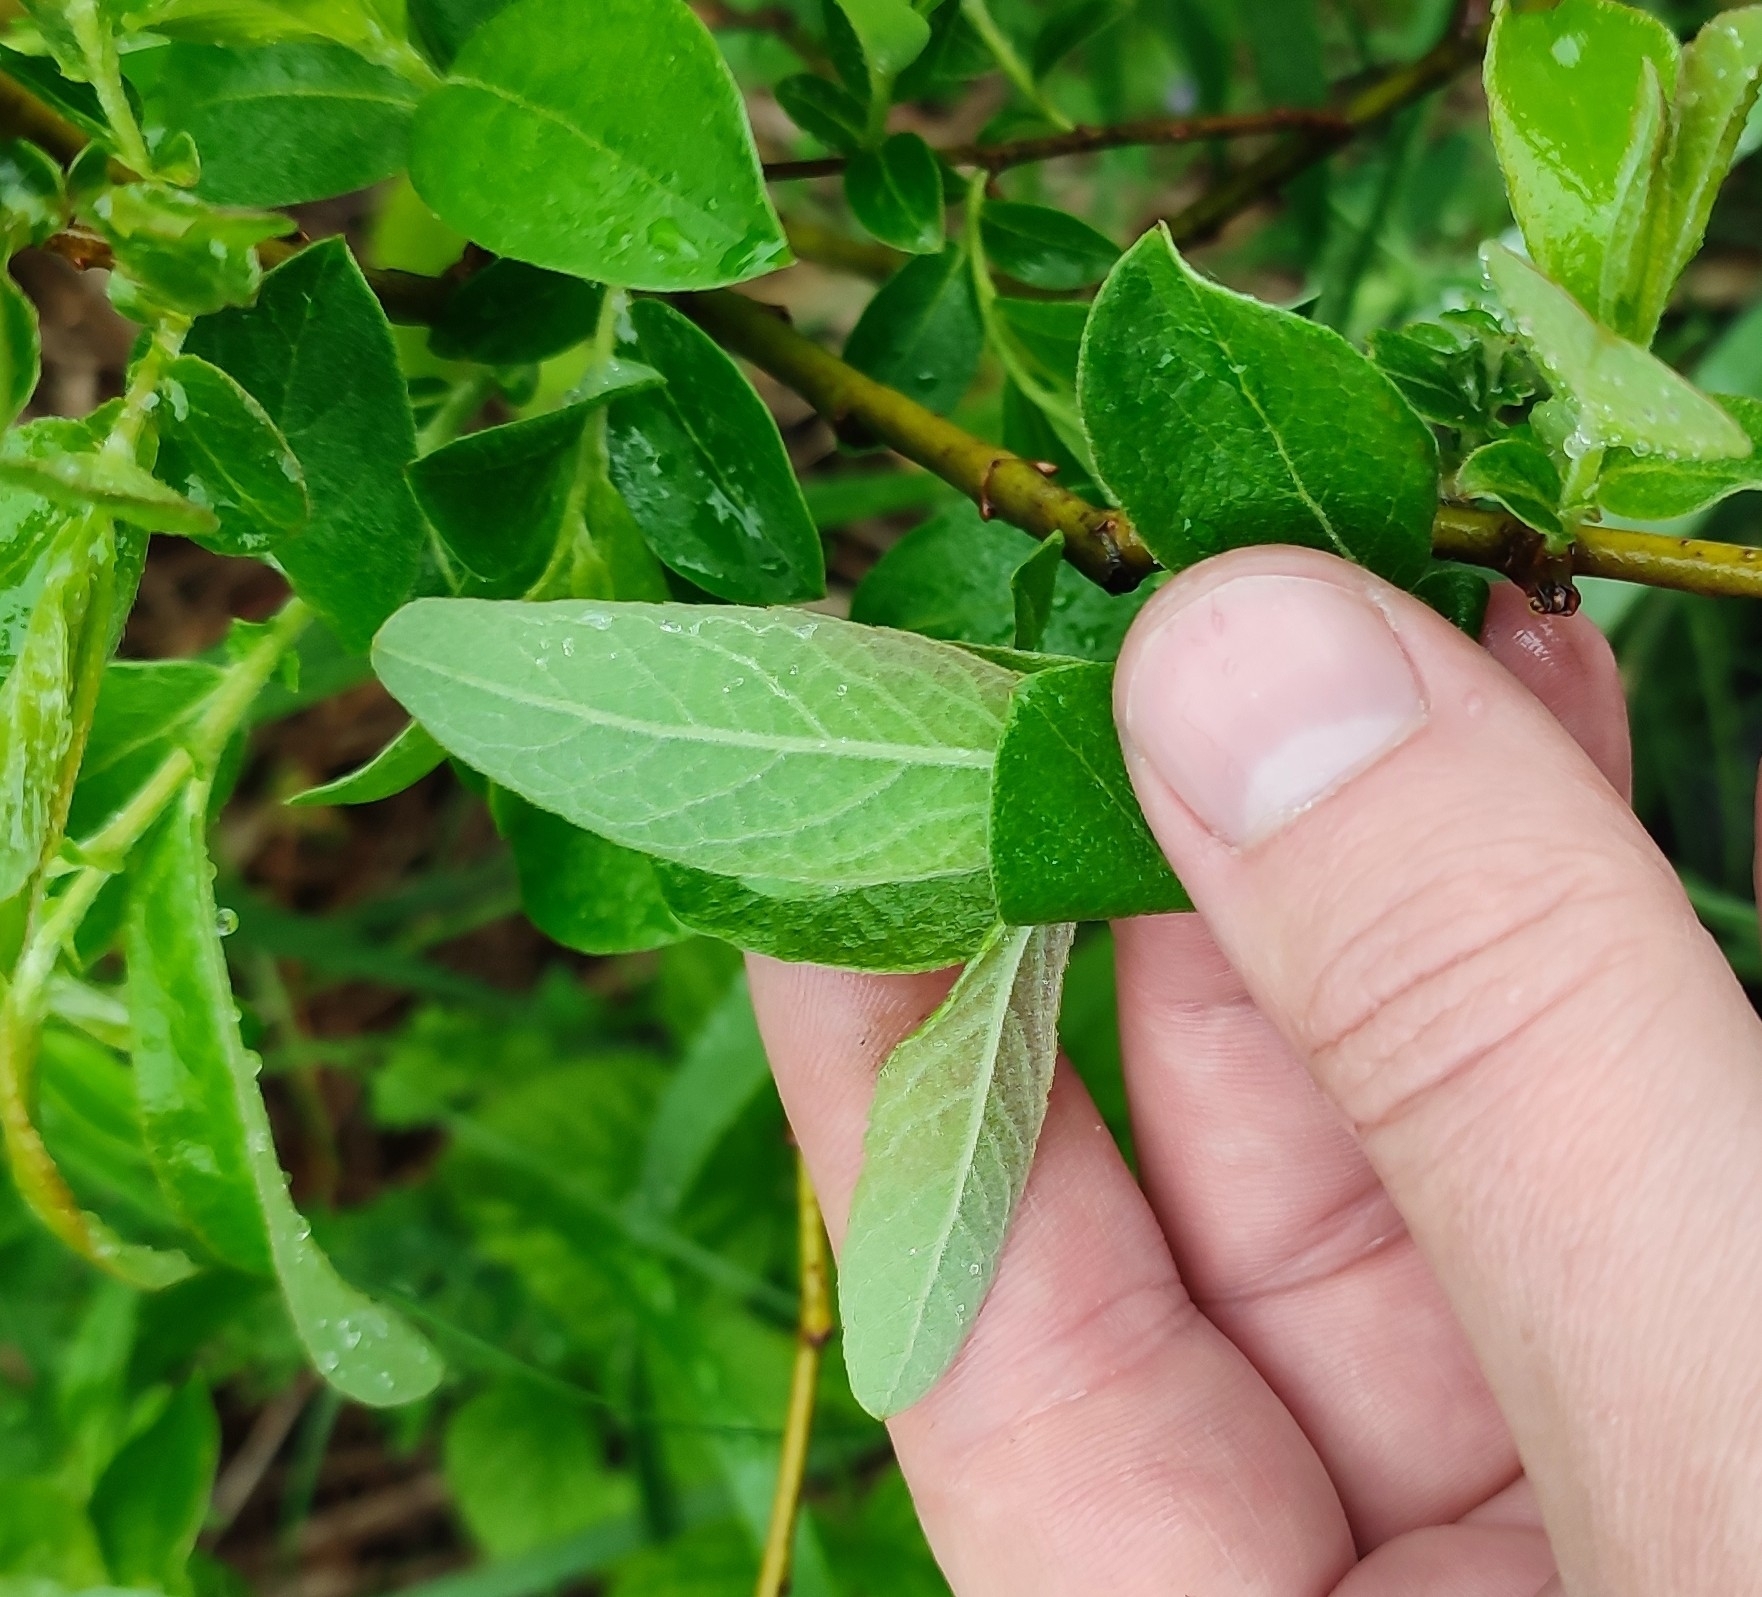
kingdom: Plantae
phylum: Tracheophyta
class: Magnoliopsida
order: Malpighiales
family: Salicaceae
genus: Salix
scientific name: Salix cinerea
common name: Common sallow
